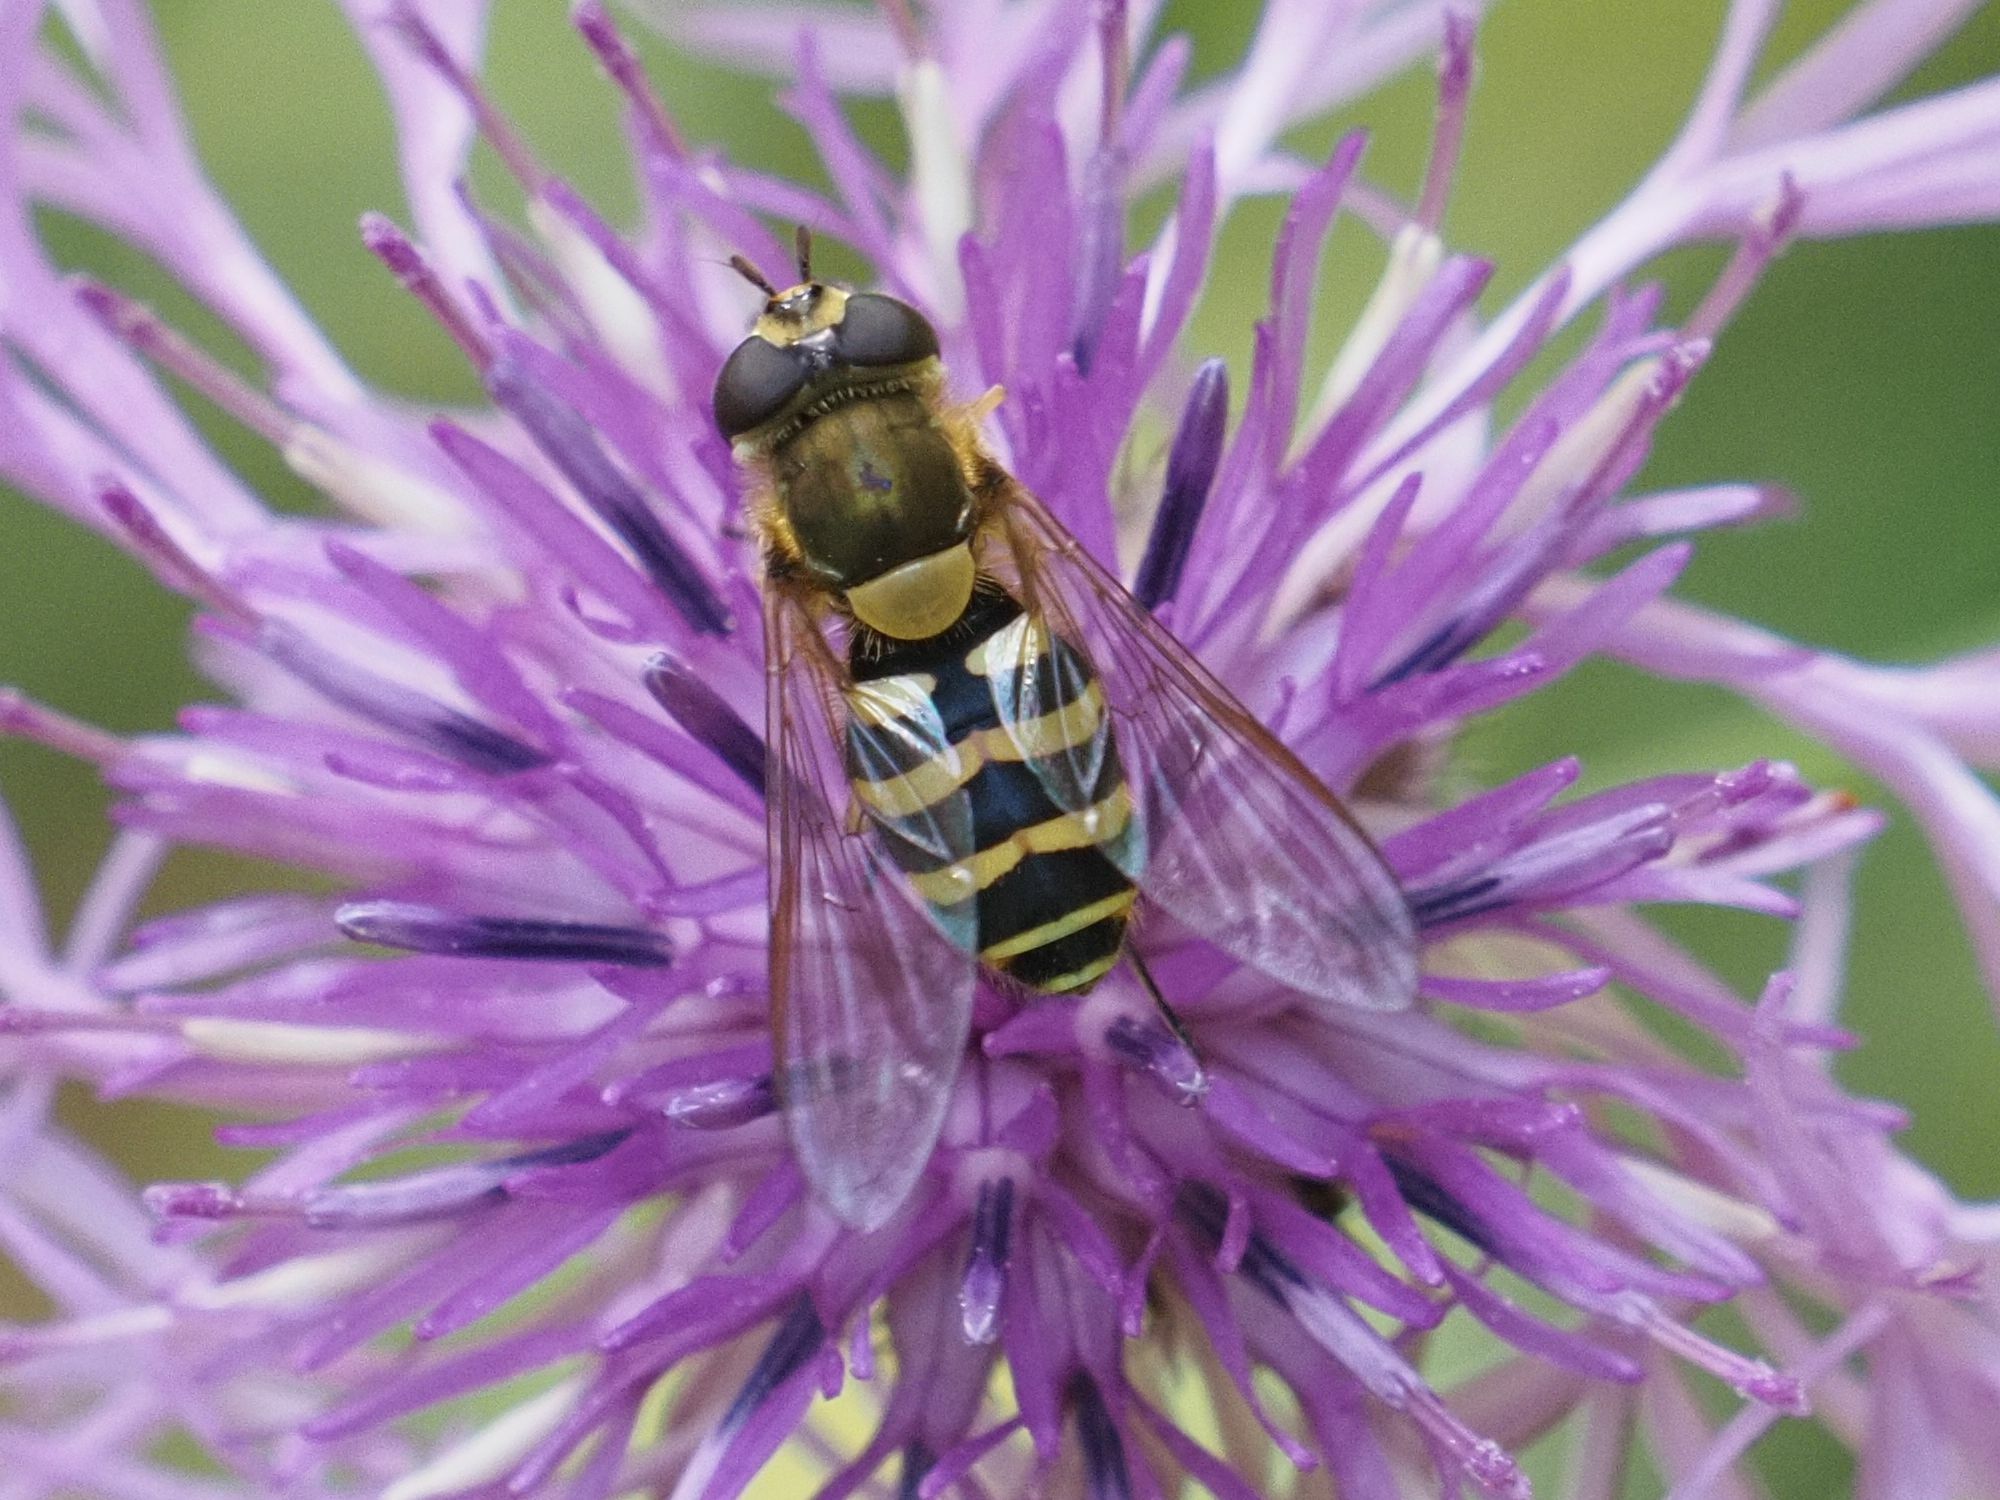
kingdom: Animalia
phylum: Arthropoda
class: Insecta
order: Diptera
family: Syrphidae
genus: Syrphus
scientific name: Syrphus torvus
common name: Hairy-eyed flower fly
